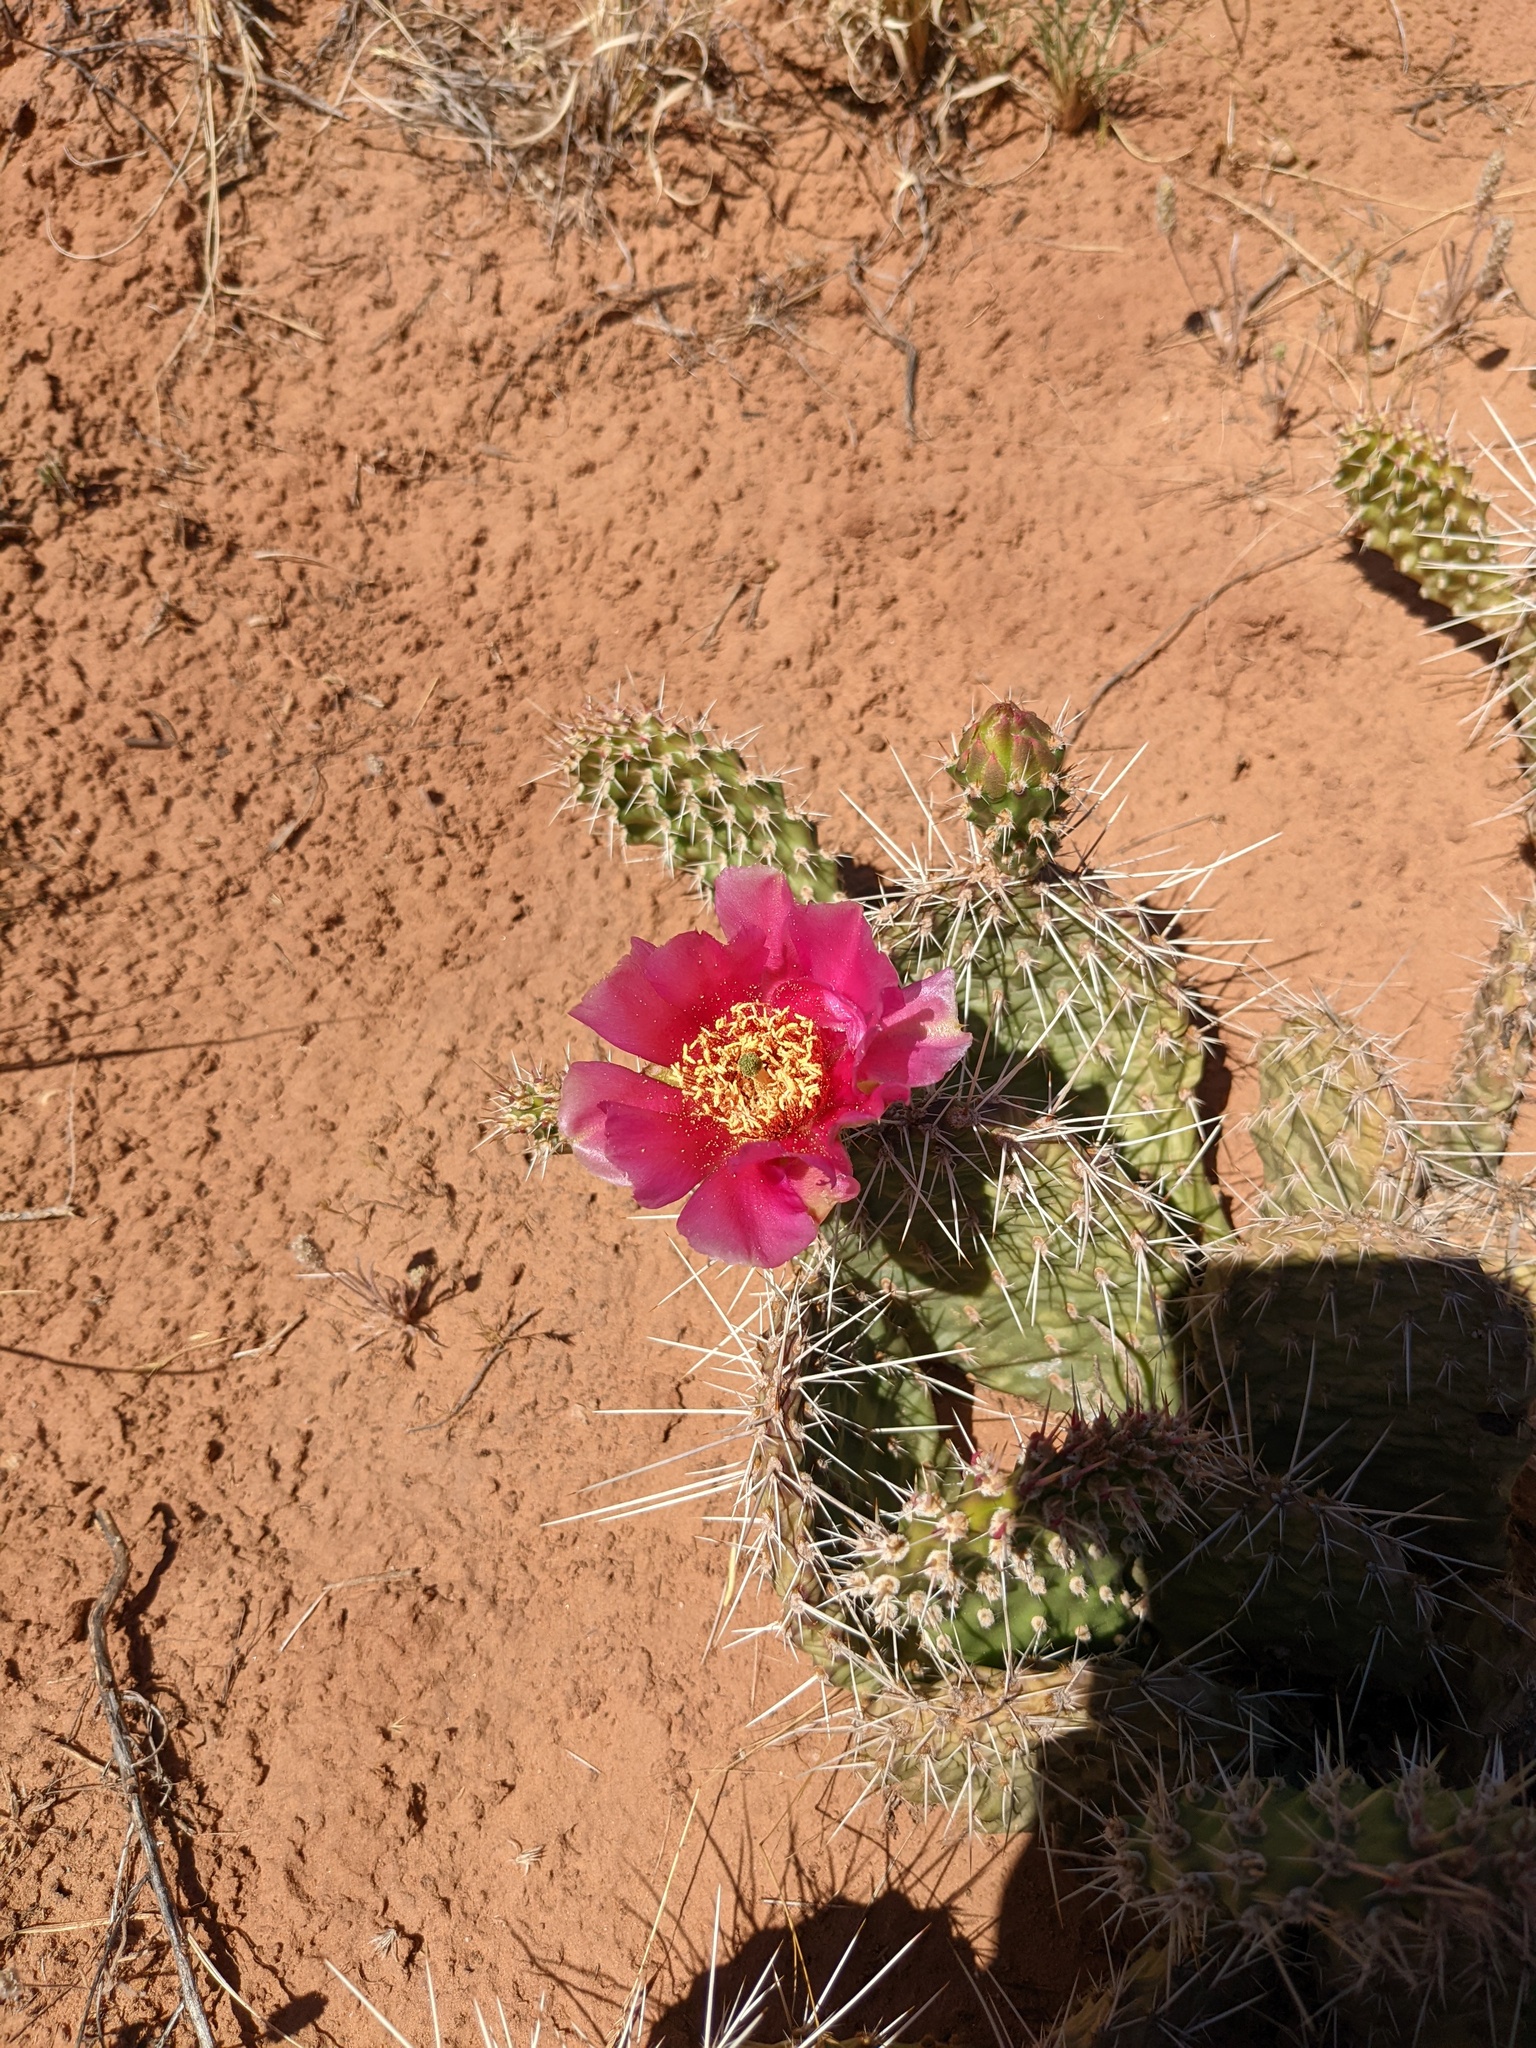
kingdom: Plantae
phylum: Tracheophyta
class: Magnoliopsida
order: Caryophyllales
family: Cactaceae
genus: Opuntia
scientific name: Opuntia polyacantha
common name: Plains prickly-pear
